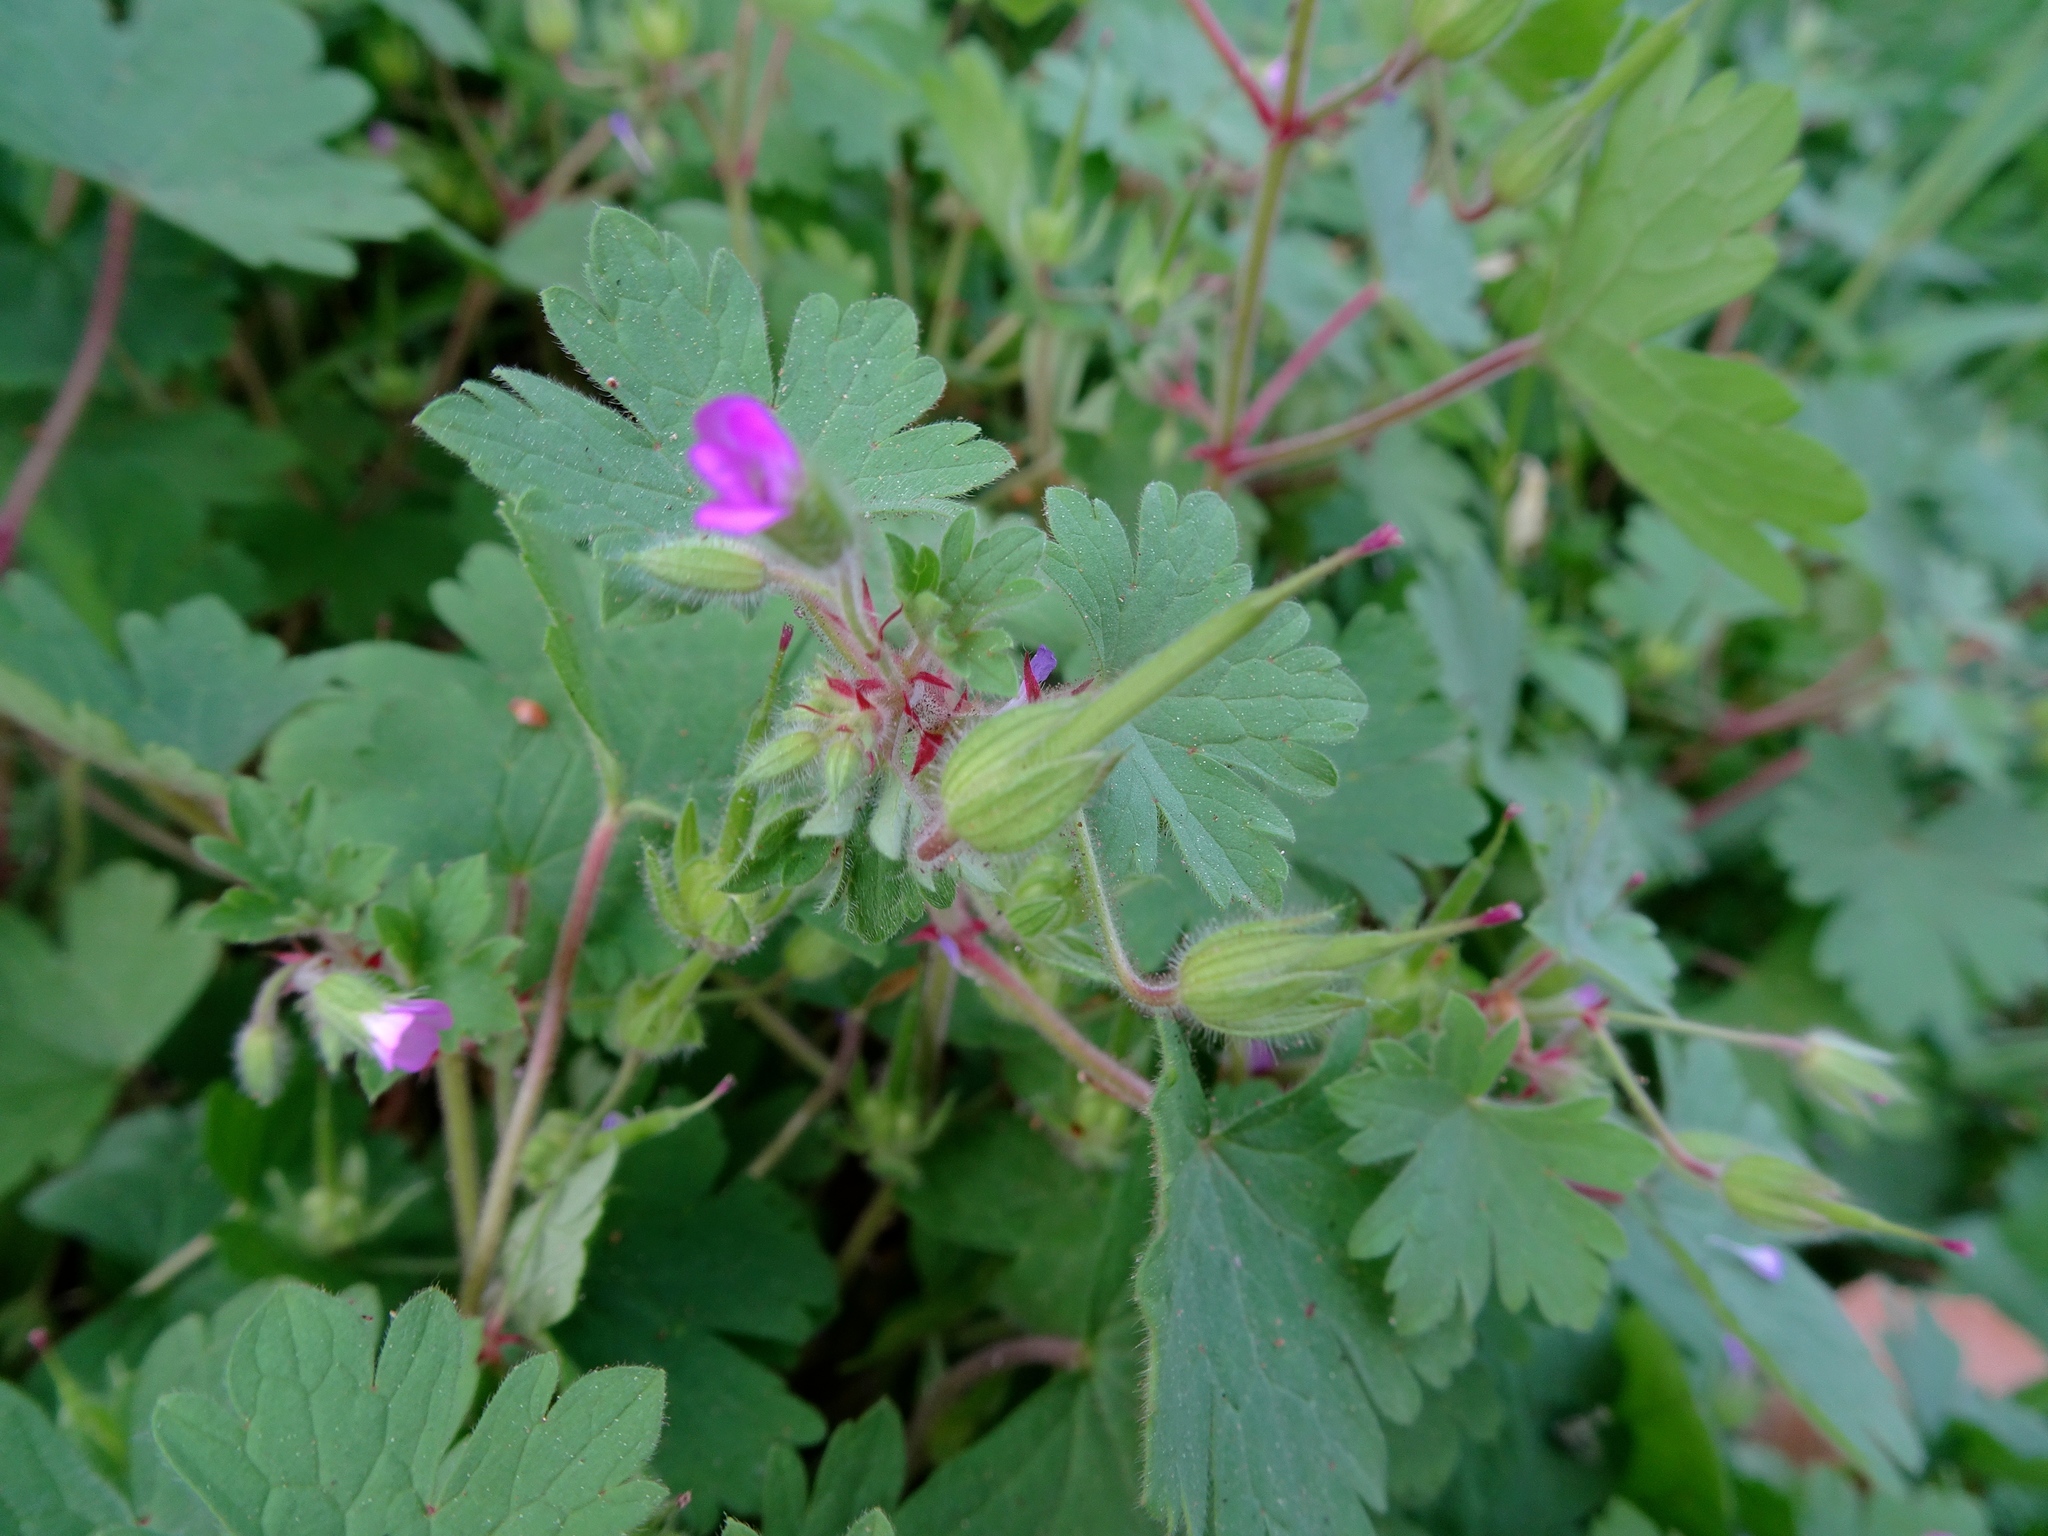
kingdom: Plantae
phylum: Tracheophyta
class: Magnoliopsida
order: Geraniales
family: Geraniaceae
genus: Geranium
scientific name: Geranium rotundifolium
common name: Round-leaved crane's-bill
